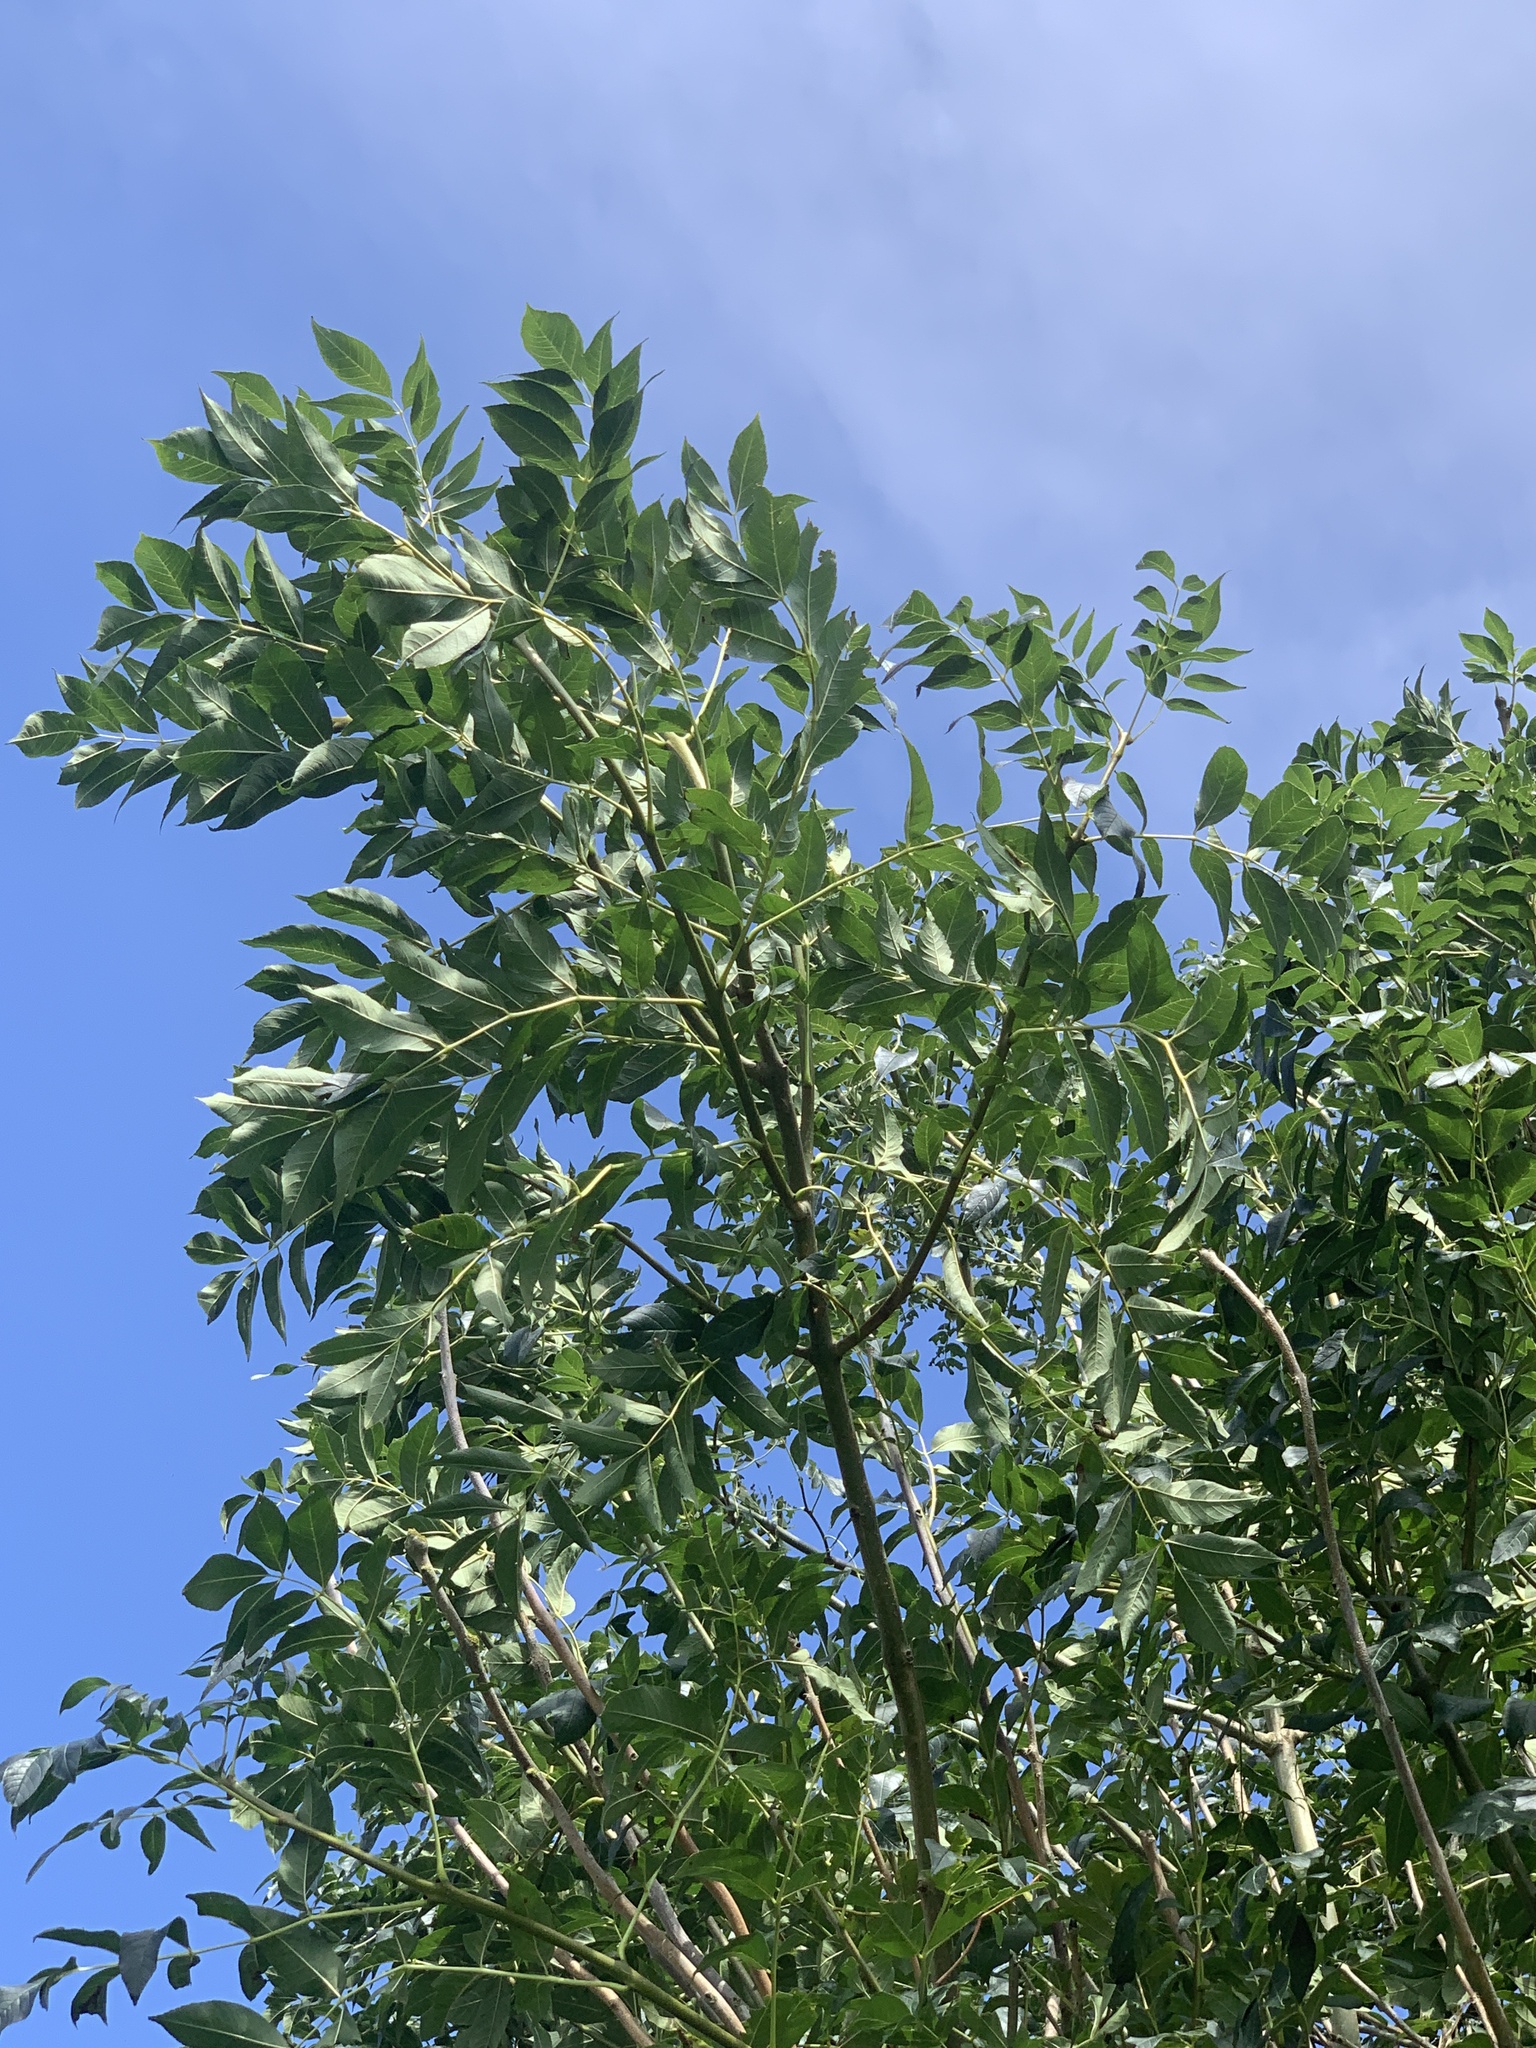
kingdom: Plantae
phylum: Tracheophyta
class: Magnoliopsida
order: Lamiales
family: Oleaceae
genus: Fraxinus
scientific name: Fraxinus excelsior
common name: European ash
